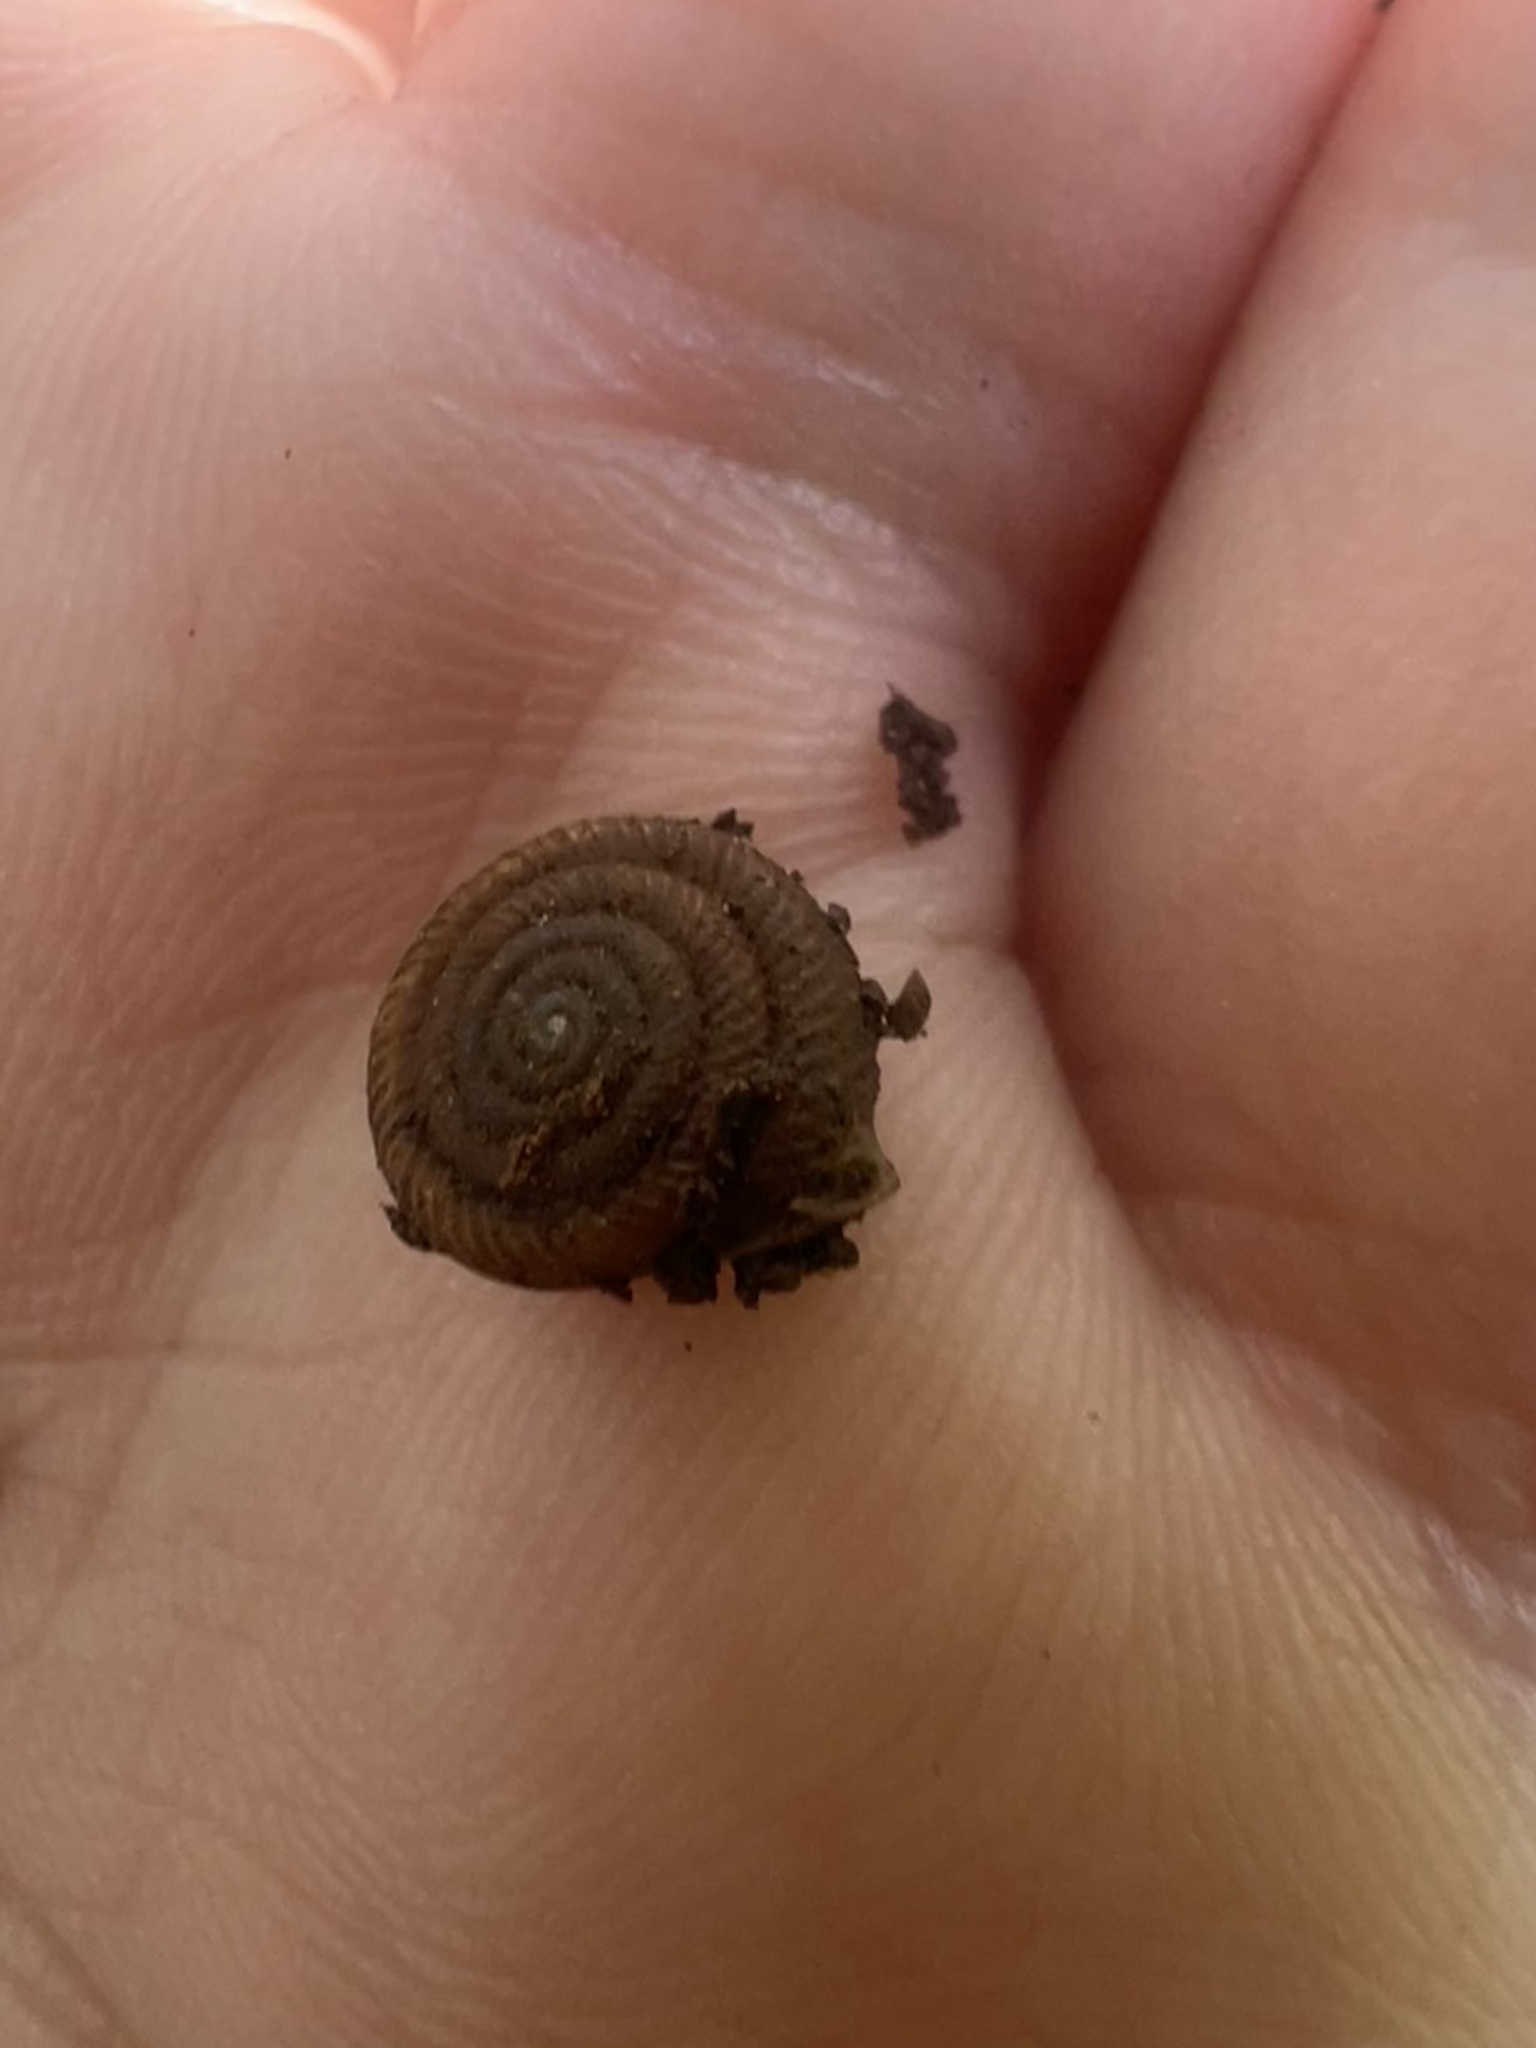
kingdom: Animalia
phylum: Mollusca
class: Gastropoda
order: Stylommatophora
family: Polygyridae
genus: Daedalochila
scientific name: Daedalochila troostiana
